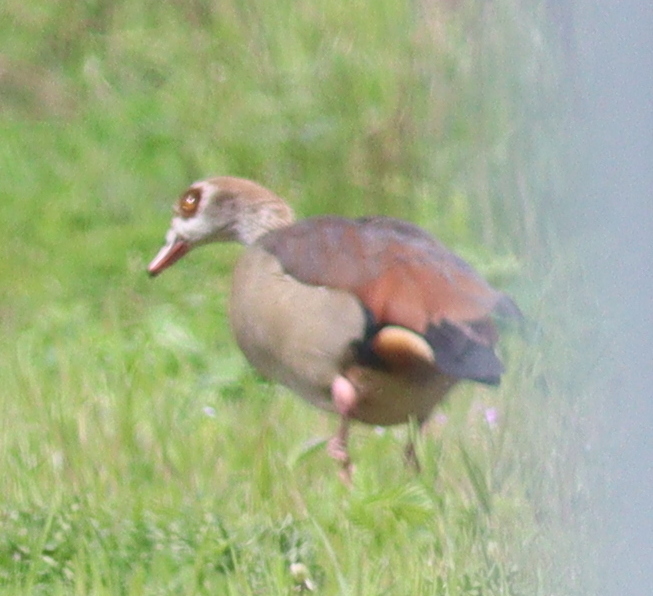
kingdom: Animalia
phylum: Chordata
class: Aves
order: Anseriformes
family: Anatidae
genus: Alopochen
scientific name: Alopochen aegyptiaca
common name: Egyptian goose
